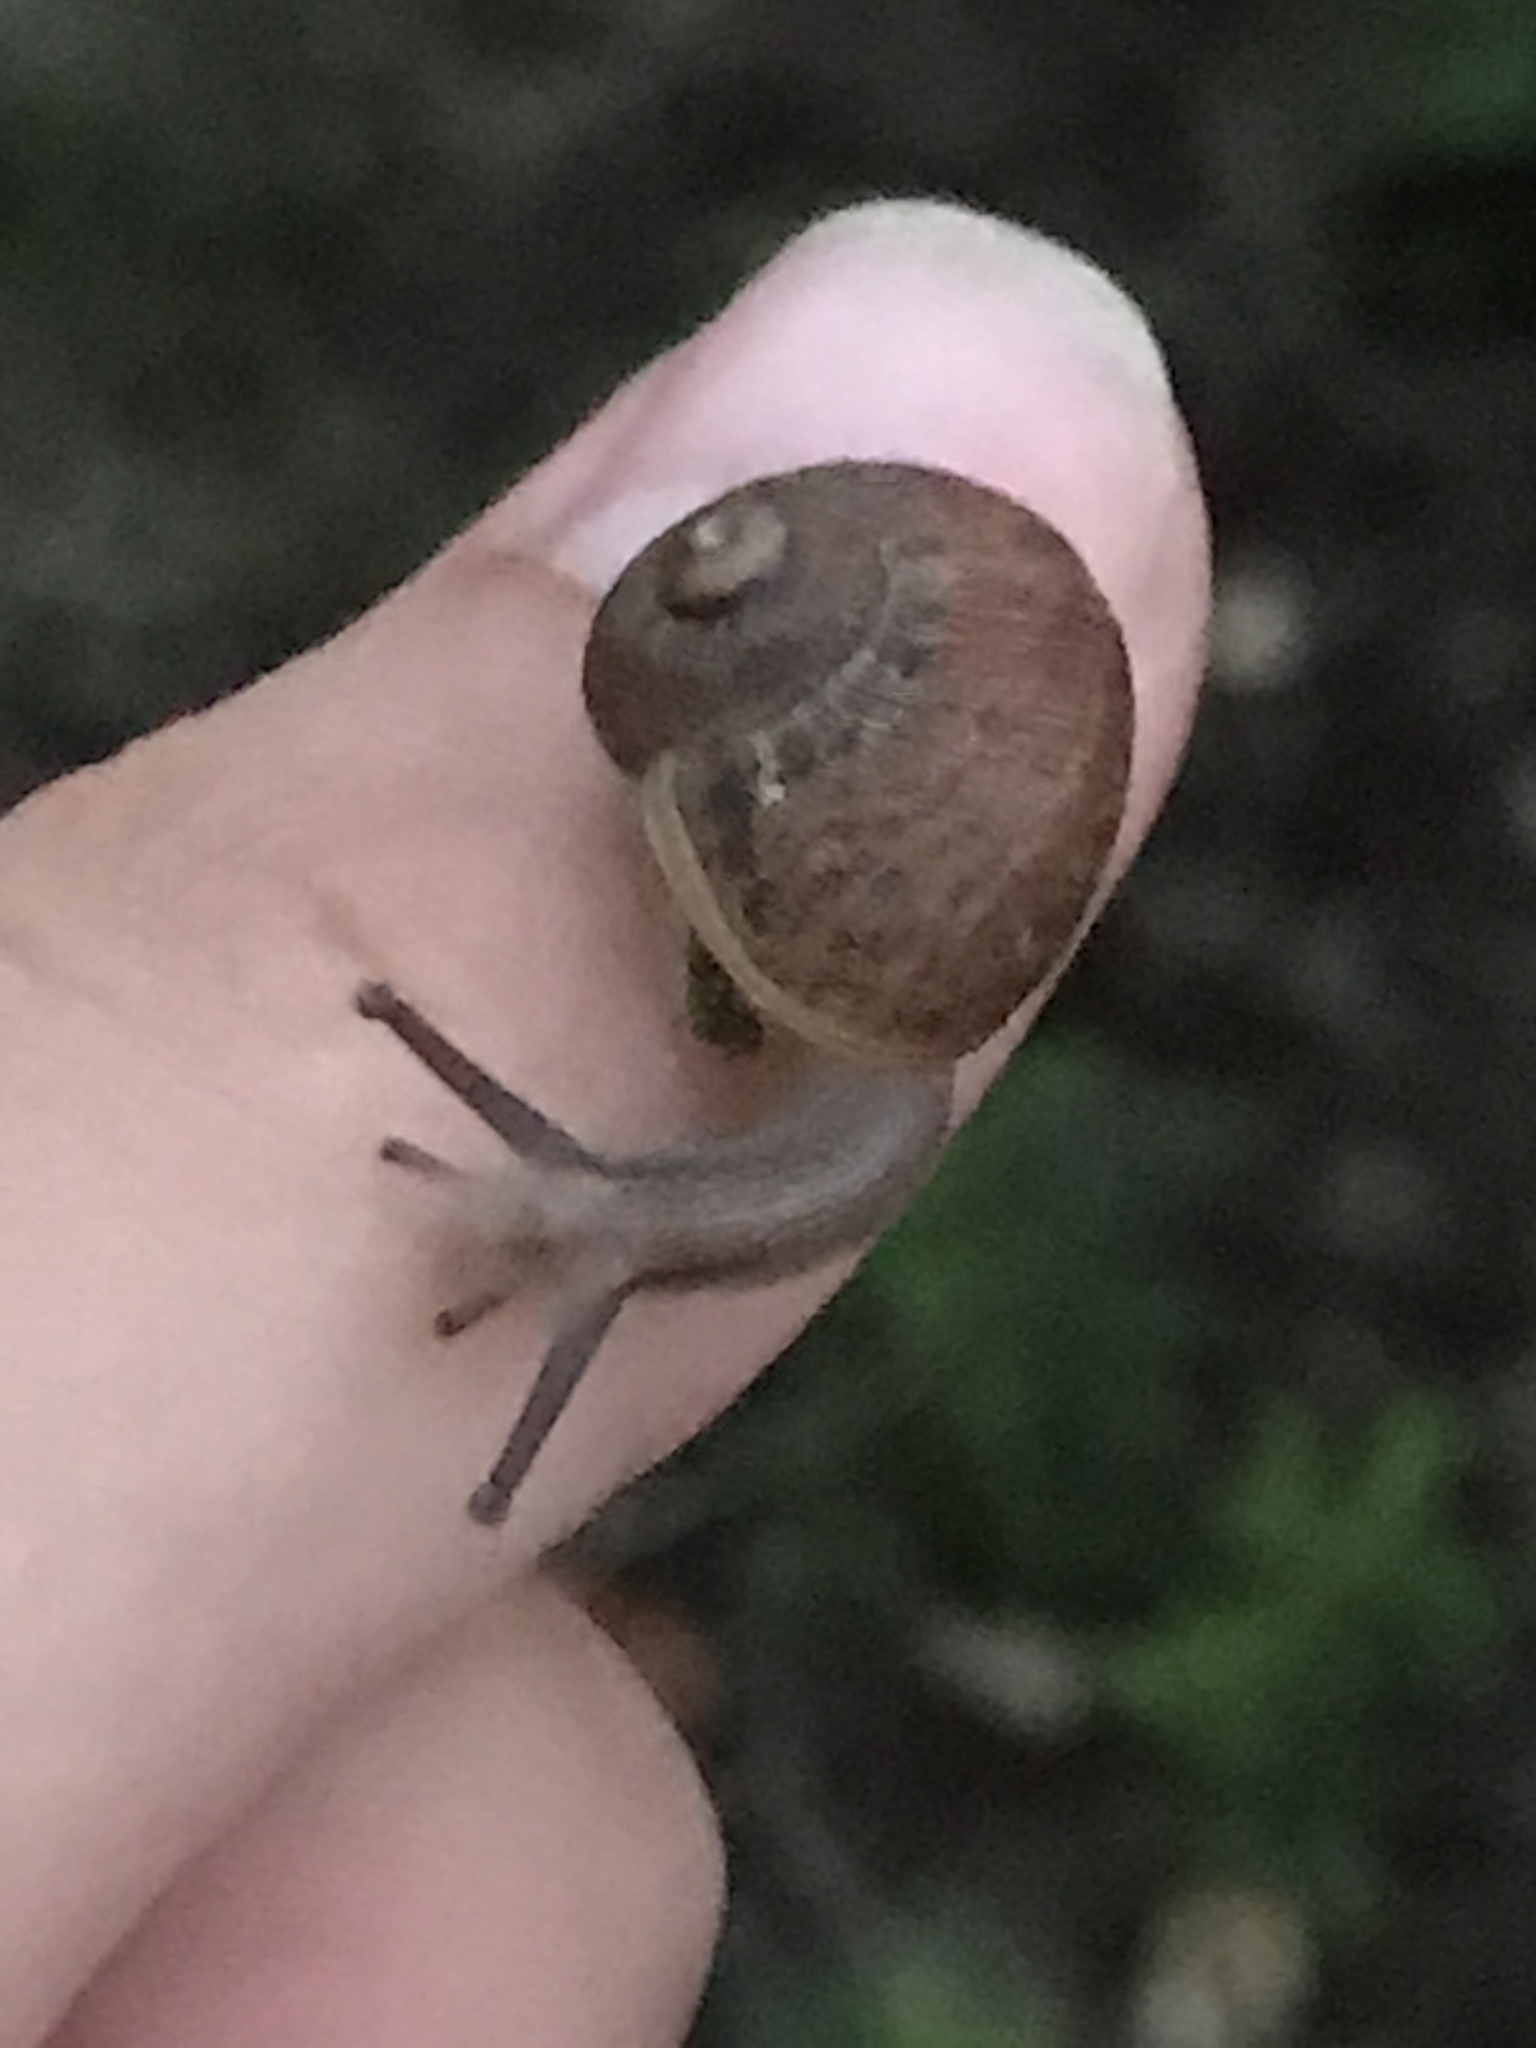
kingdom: Animalia
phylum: Mollusca
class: Gastropoda
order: Stylommatophora
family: Helicidae
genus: Cornu
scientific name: Cornu aspersum
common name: Brown garden snail
